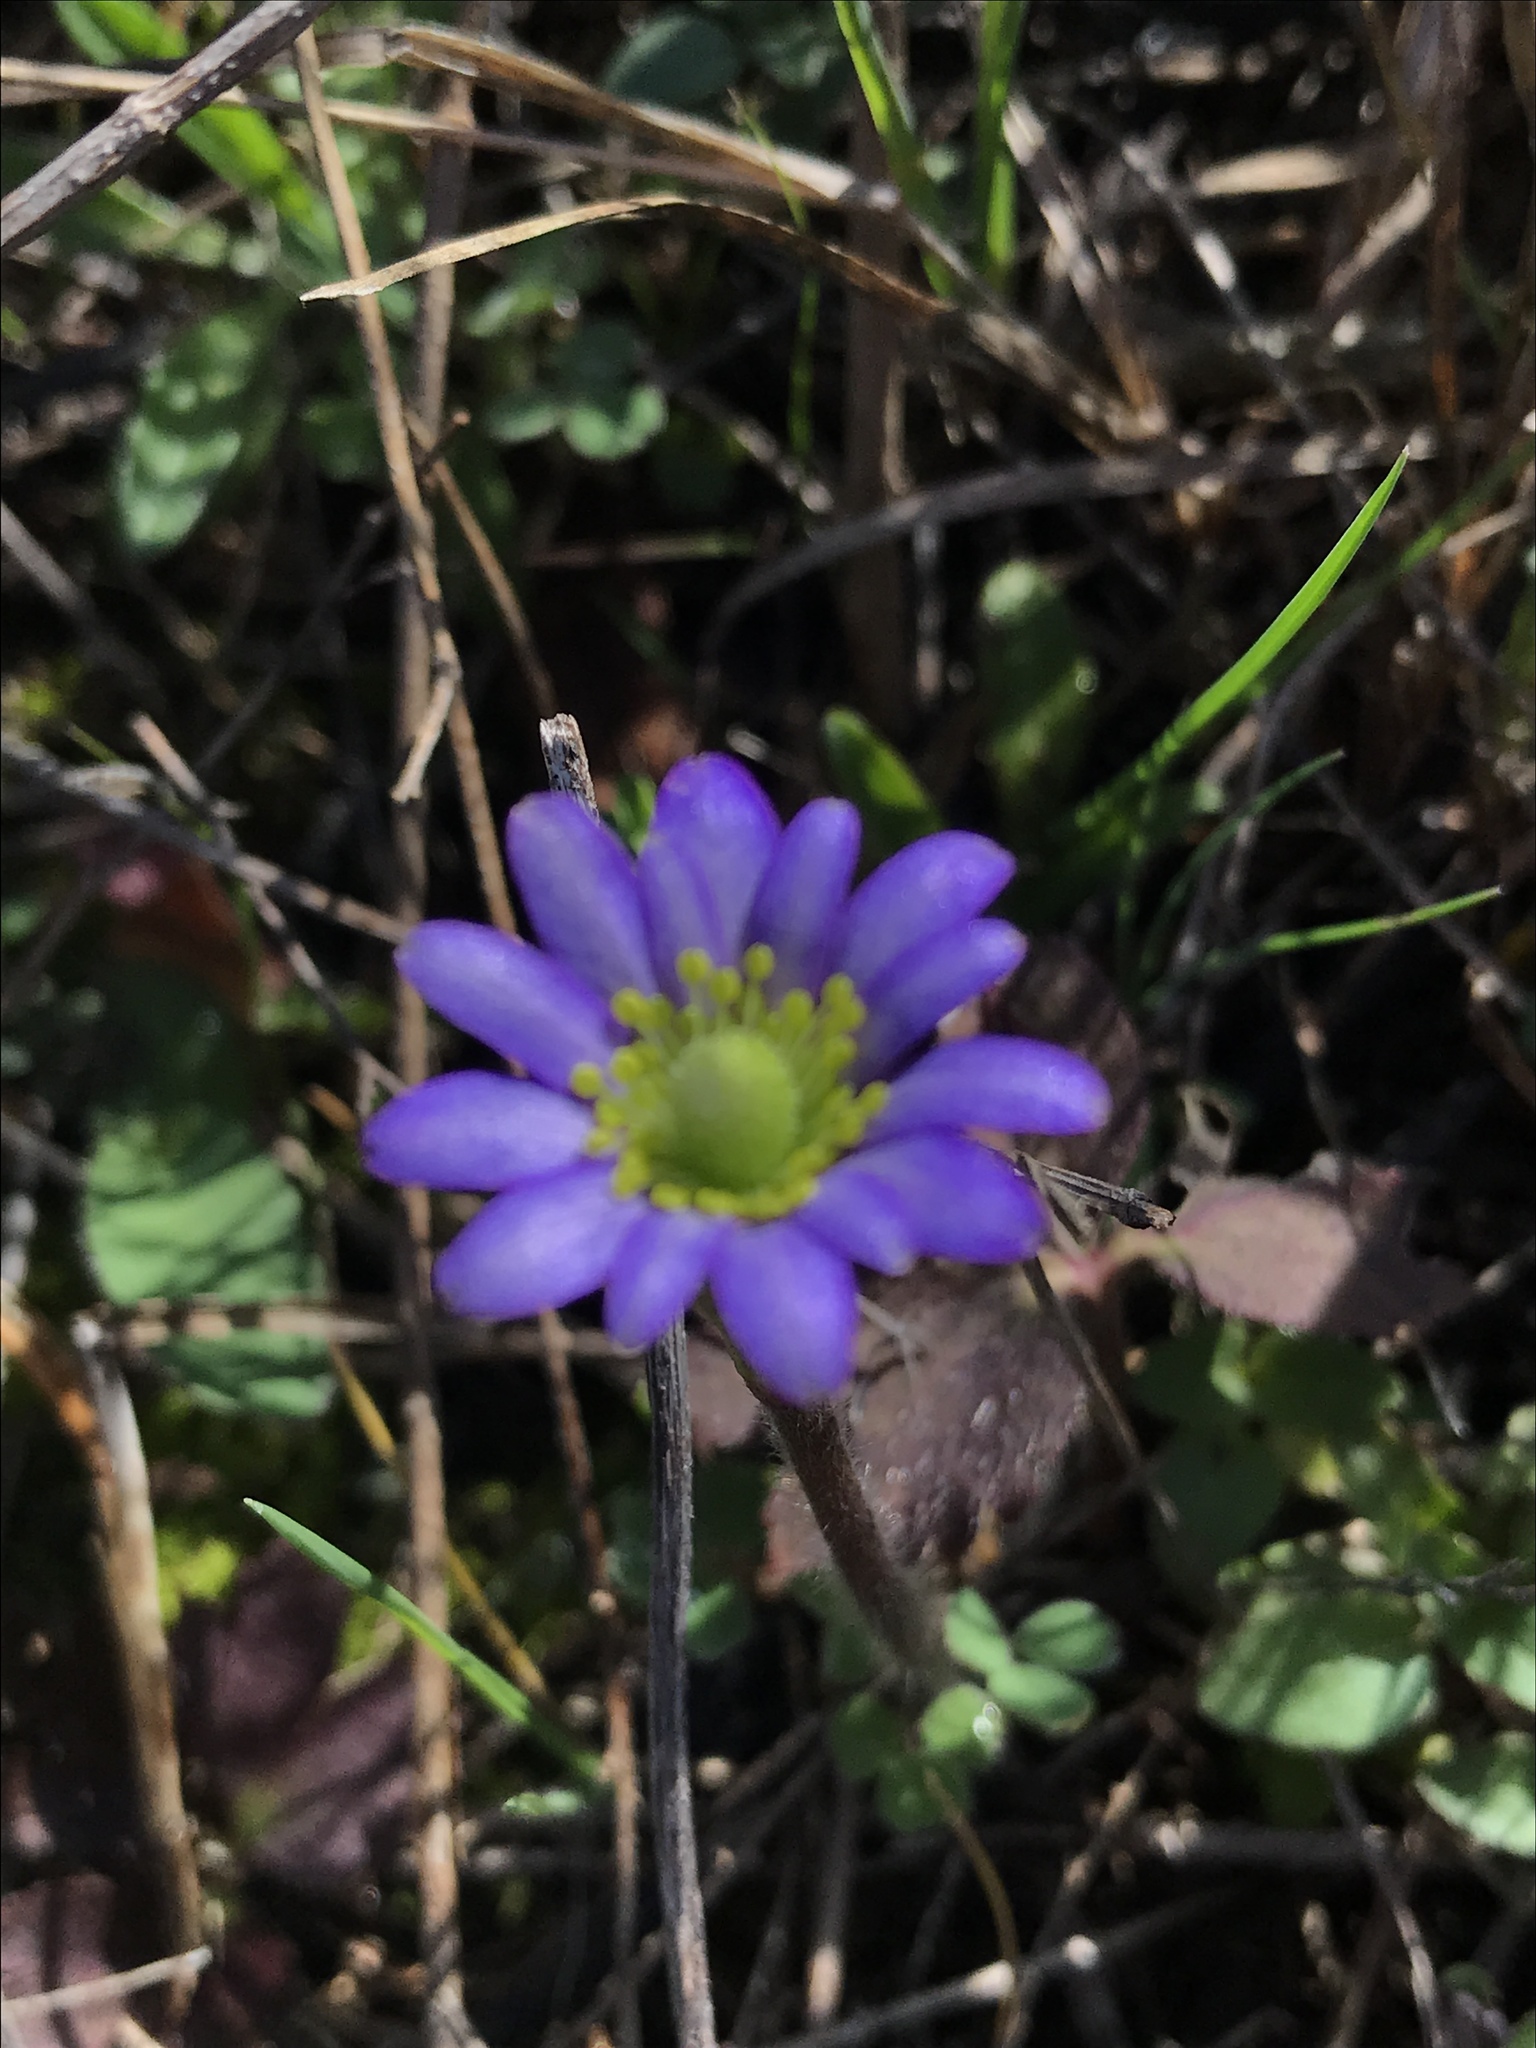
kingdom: Plantae
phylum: Tracheophyta
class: Magnoliopsida
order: Ranunculales
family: Ranunculaceae
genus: Anemone
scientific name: Anemone berlandieri
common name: Ten-petal anemone
